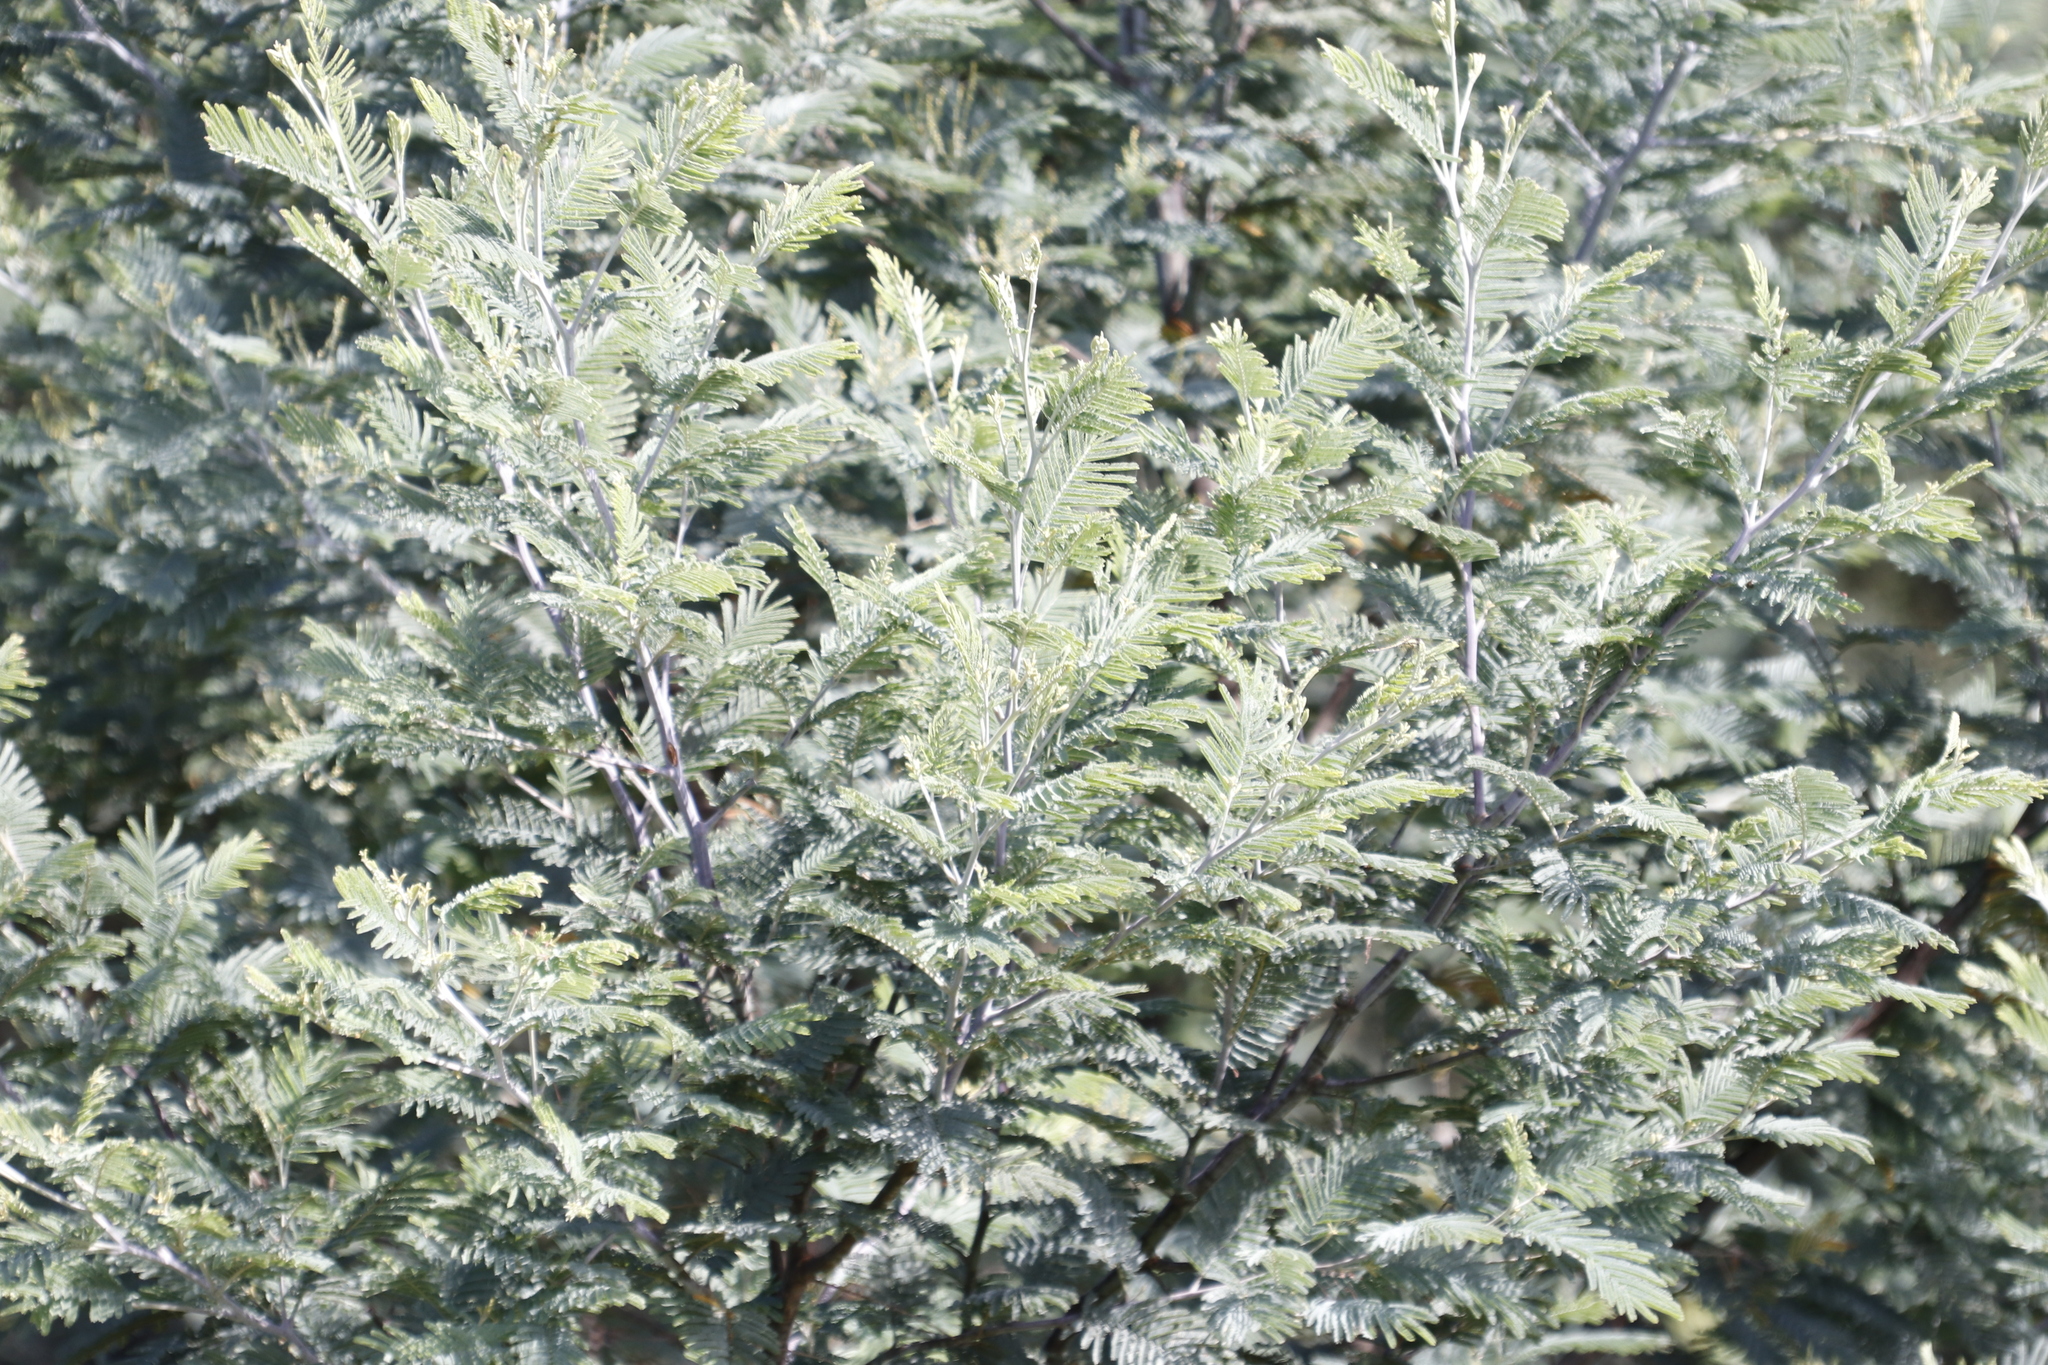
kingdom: Plantae
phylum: Tracheophyta
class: Magnoliopsida
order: Fabales
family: Fabaceae
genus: Acacia
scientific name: Acacia dealbata
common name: Silver wattle
